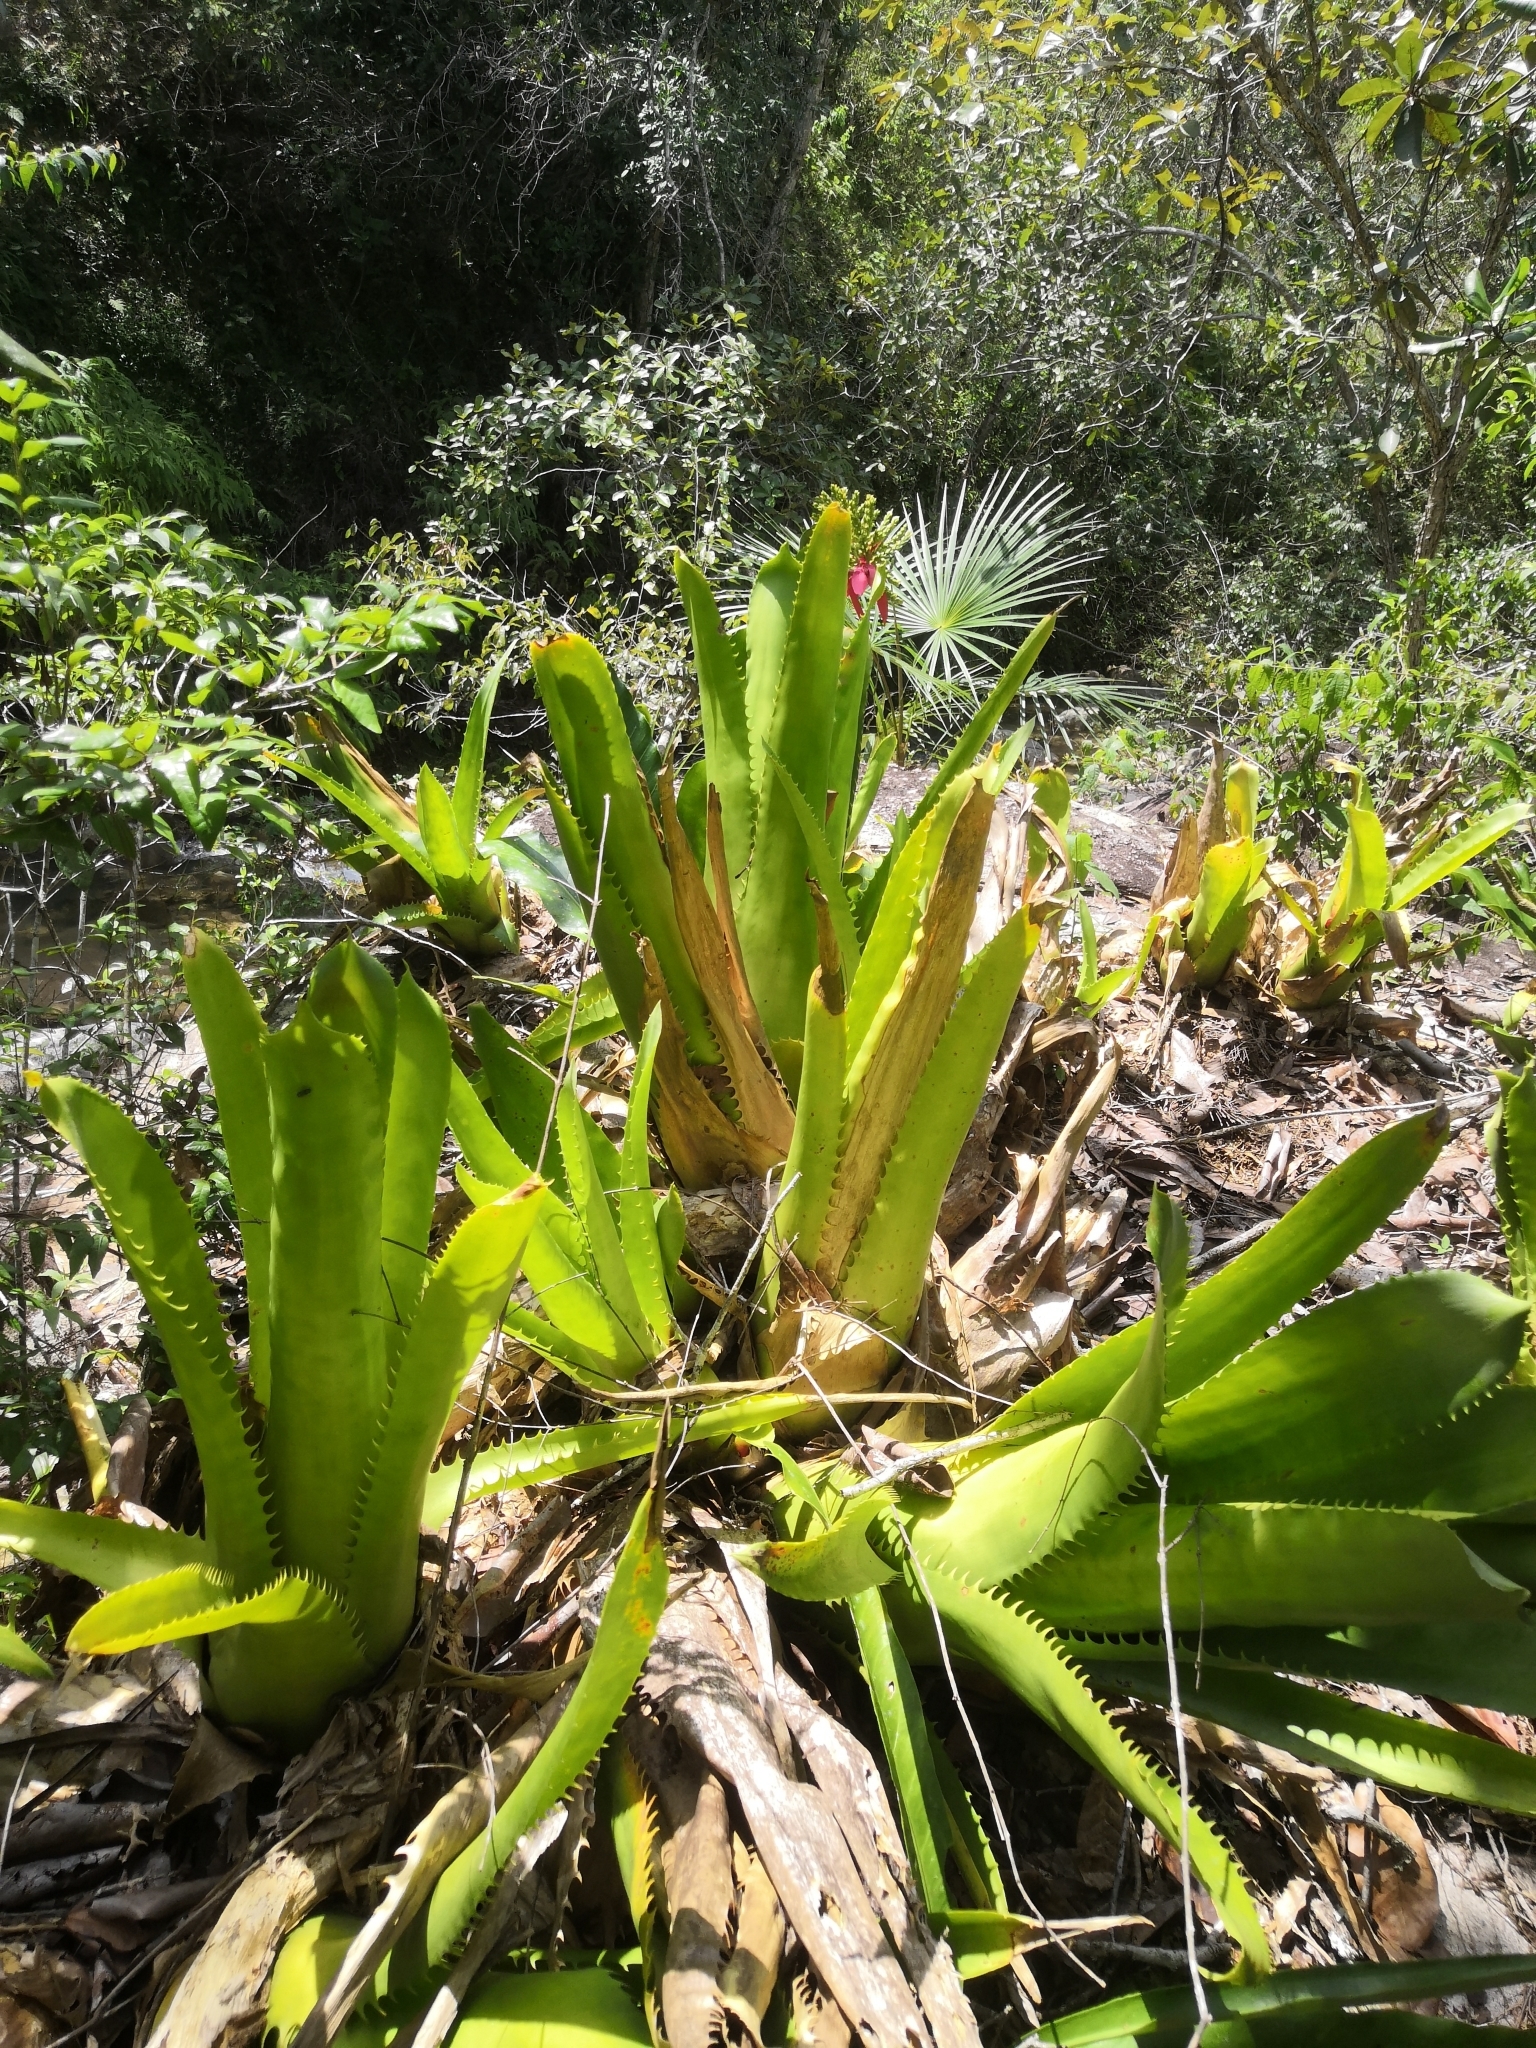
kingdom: Plantae
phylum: Tracheophyta
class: Liliopsida
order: Poales
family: Bromeliaceae
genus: Aechmea
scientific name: Aechmea bracteata
